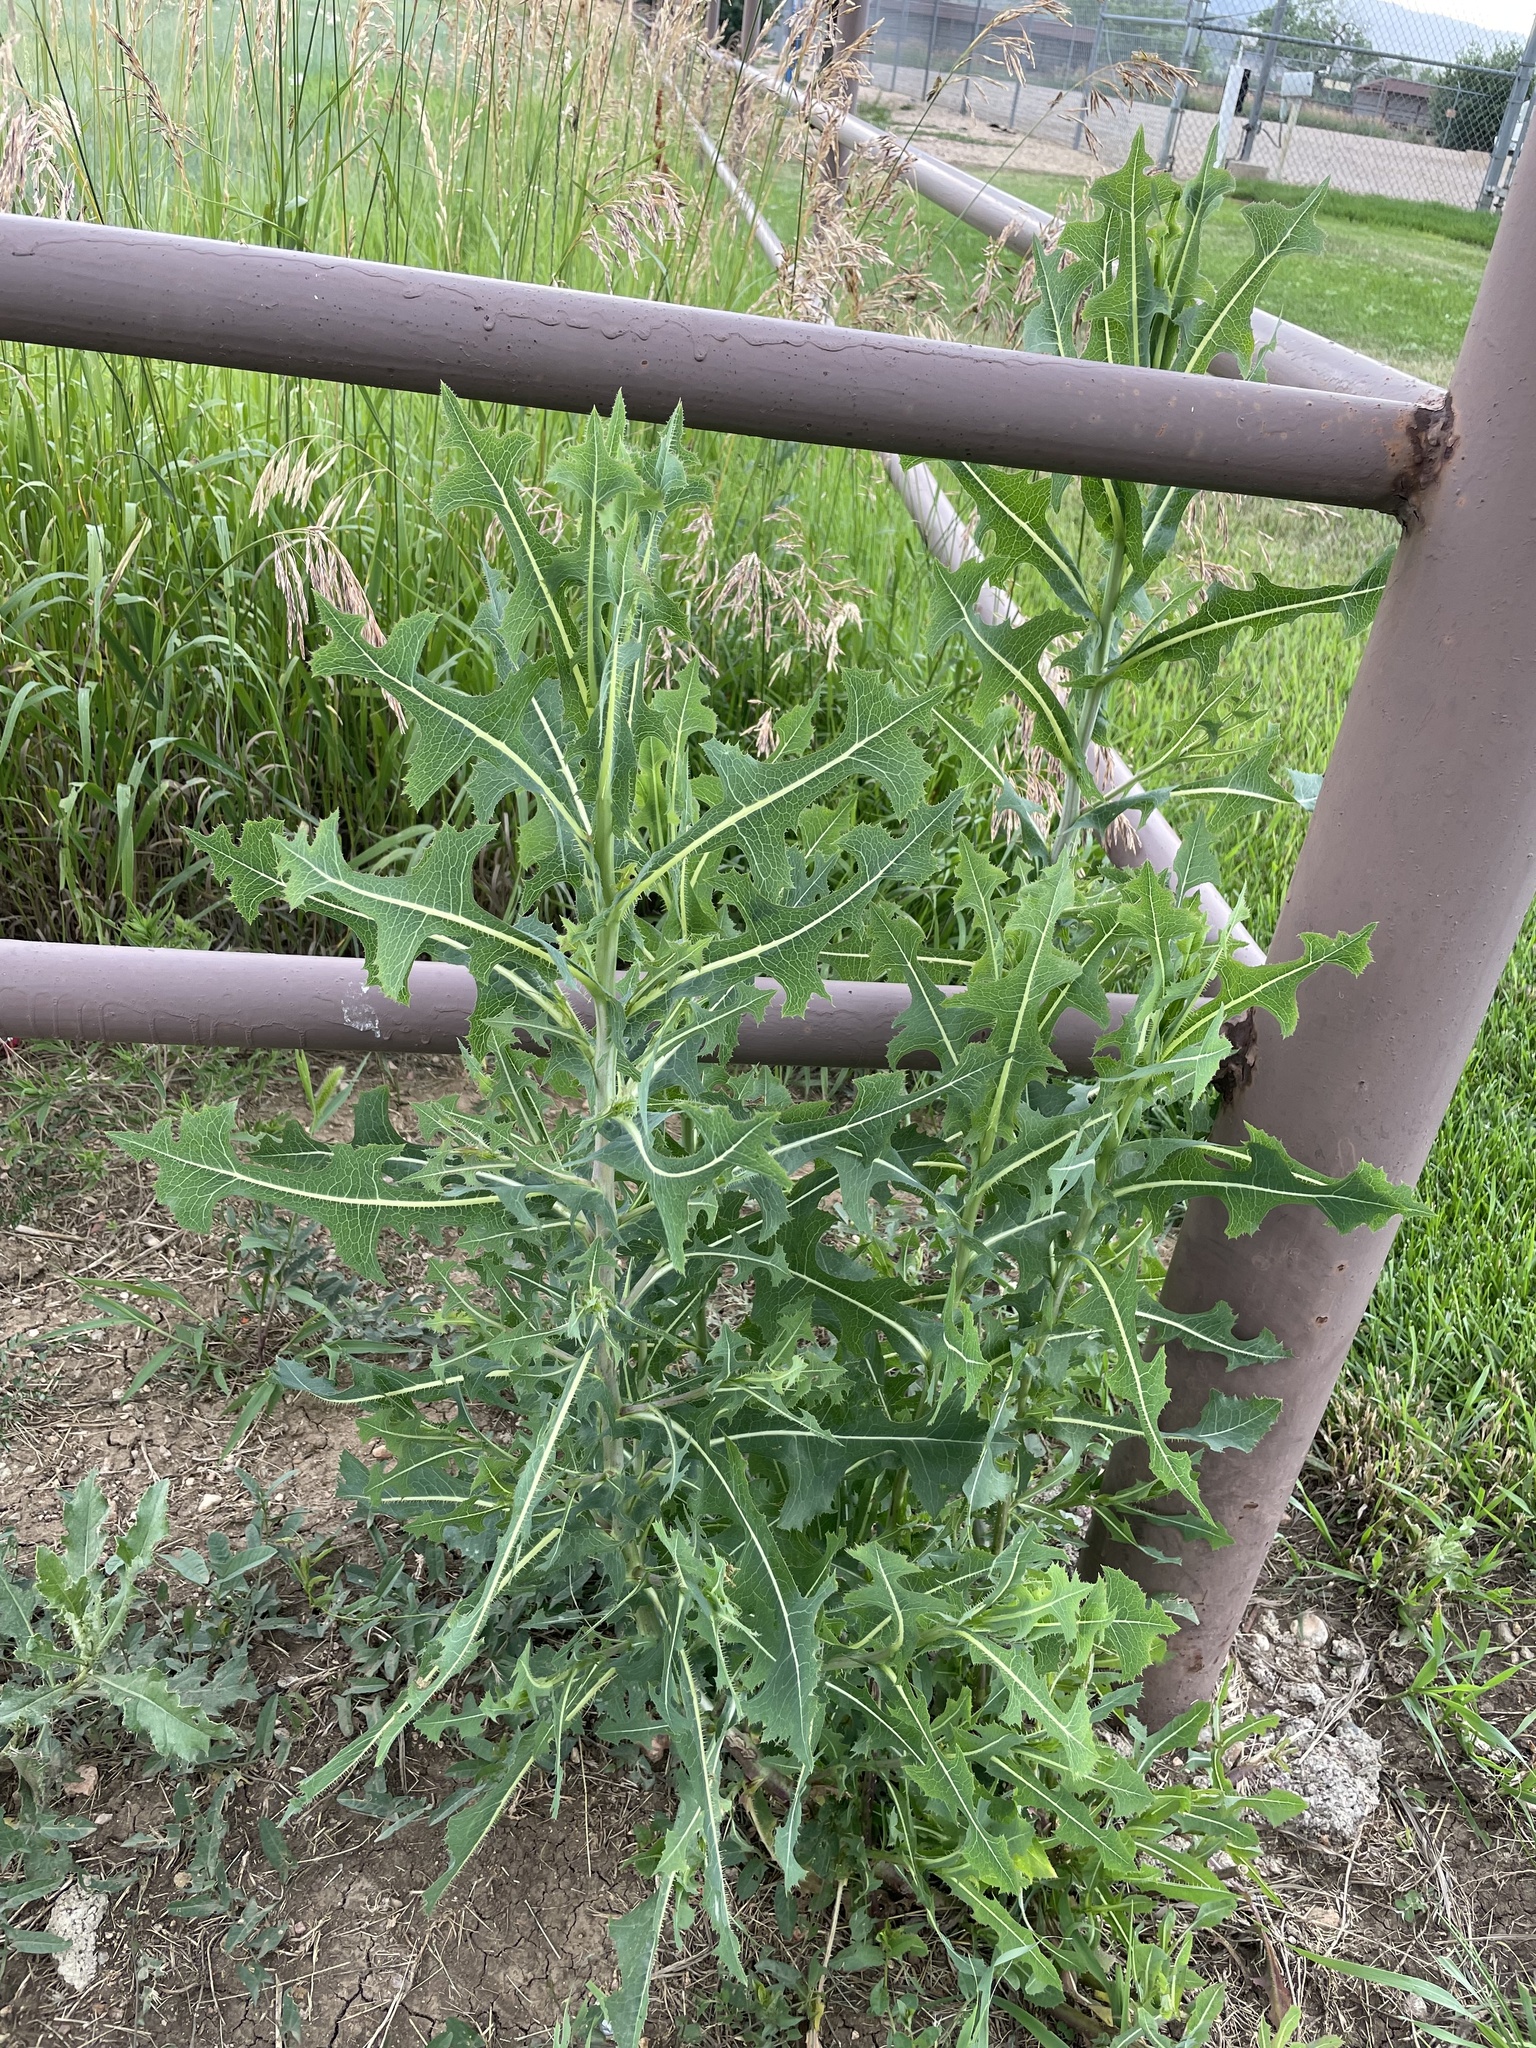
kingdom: Plantae
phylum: Tracheophyta
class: Magnoliopsida
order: Asterales
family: Asteraceae
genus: Lactuca
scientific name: Lactuca serriola
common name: Prickly lettuce
